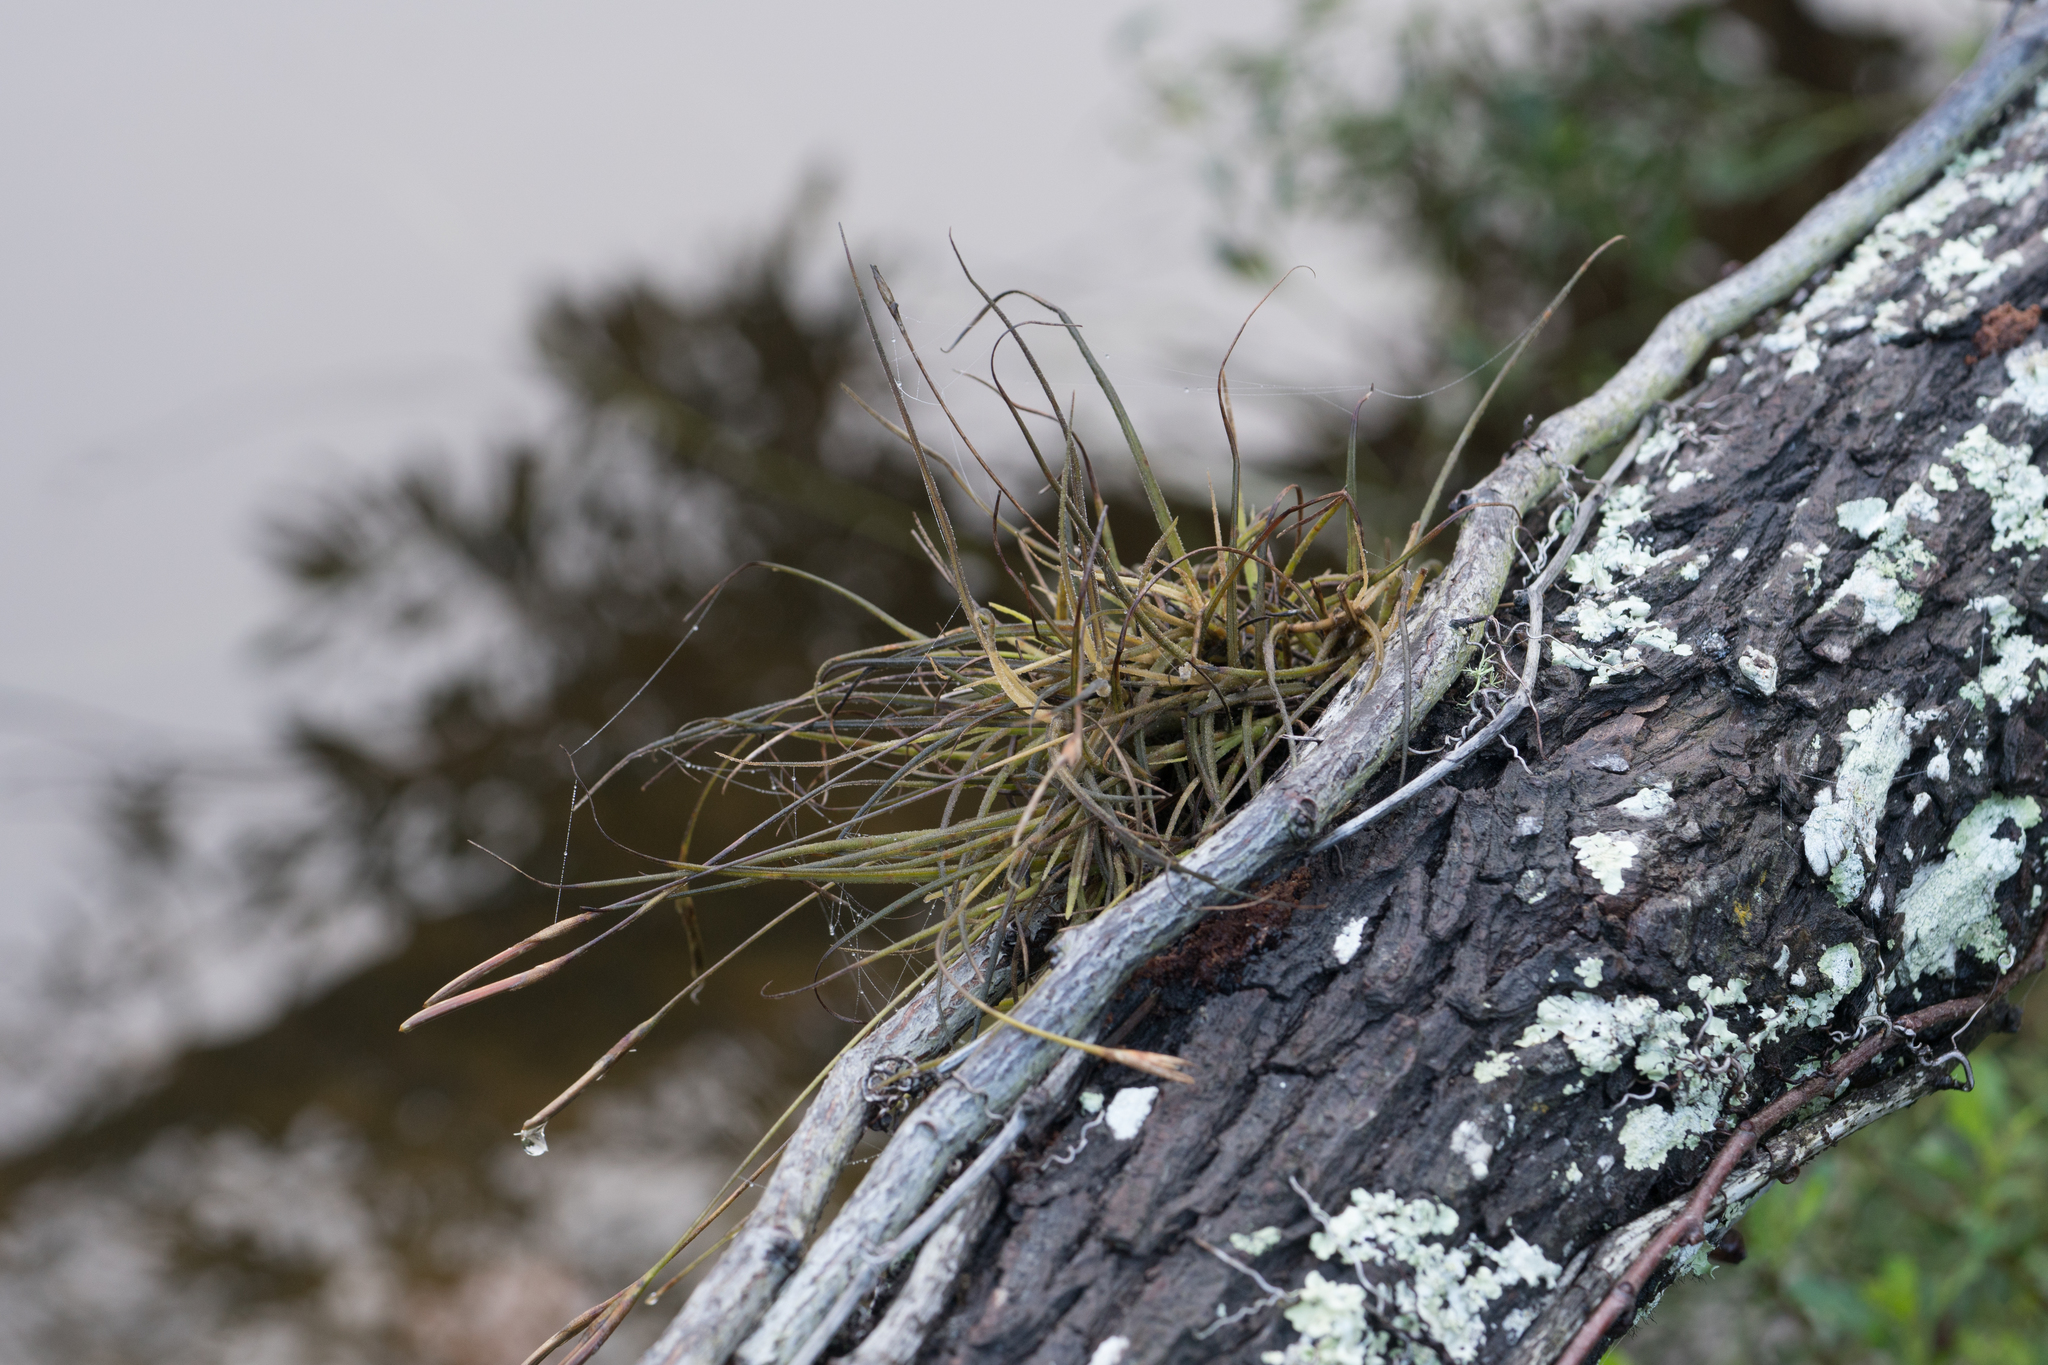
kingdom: Plantae
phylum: Tracheophyta
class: Liliopsida
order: Poales
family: Bromeliaceae
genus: Tillandsia
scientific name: Tillandsia recurvata
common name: Small ballmoss
